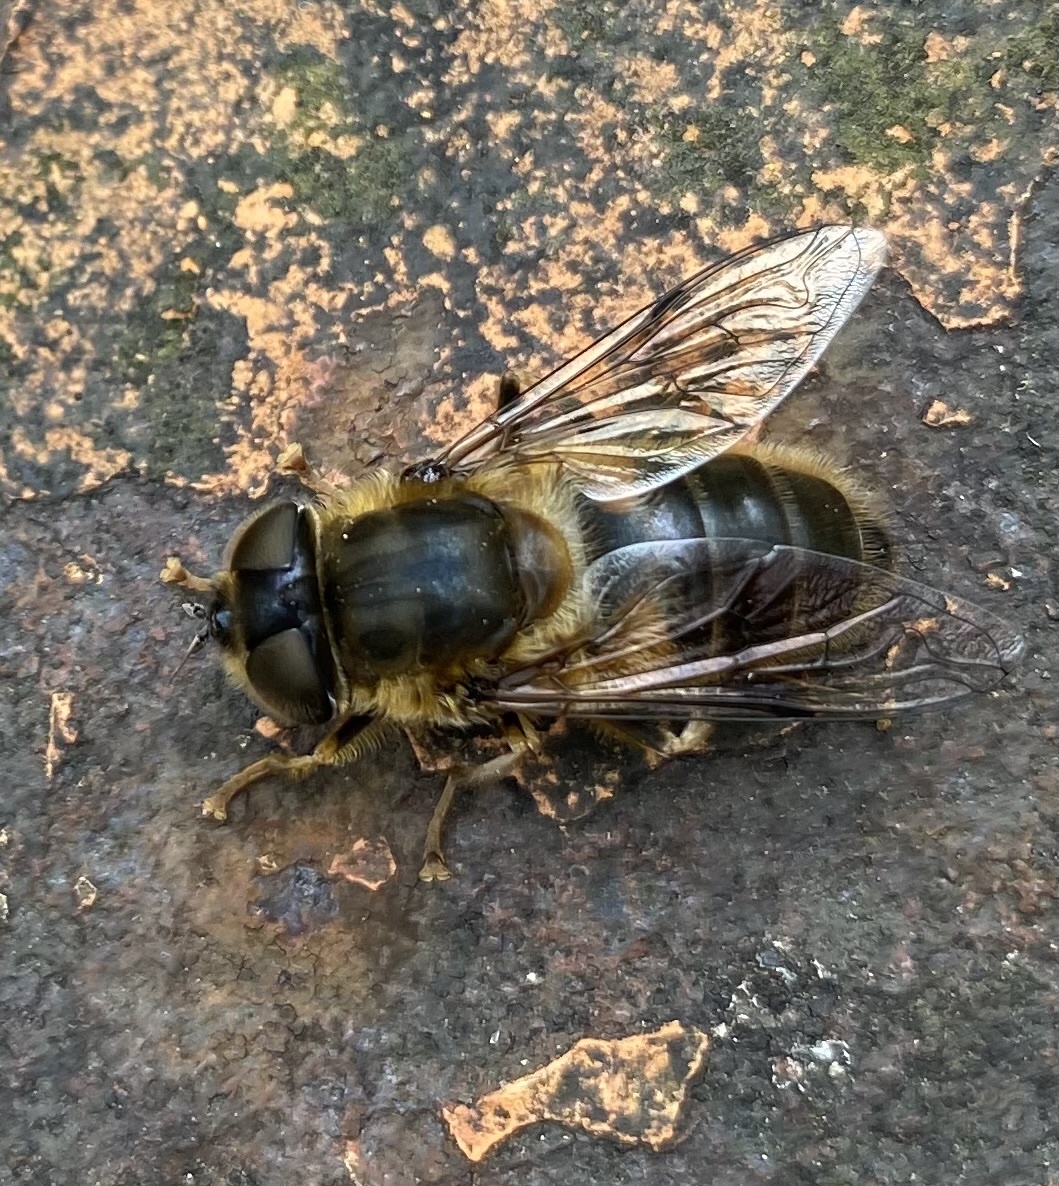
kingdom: Animalia
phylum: Arthropoda
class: Insecta
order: Diptera
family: Syrphidae
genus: Eristalis
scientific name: Eristalis pertinax
